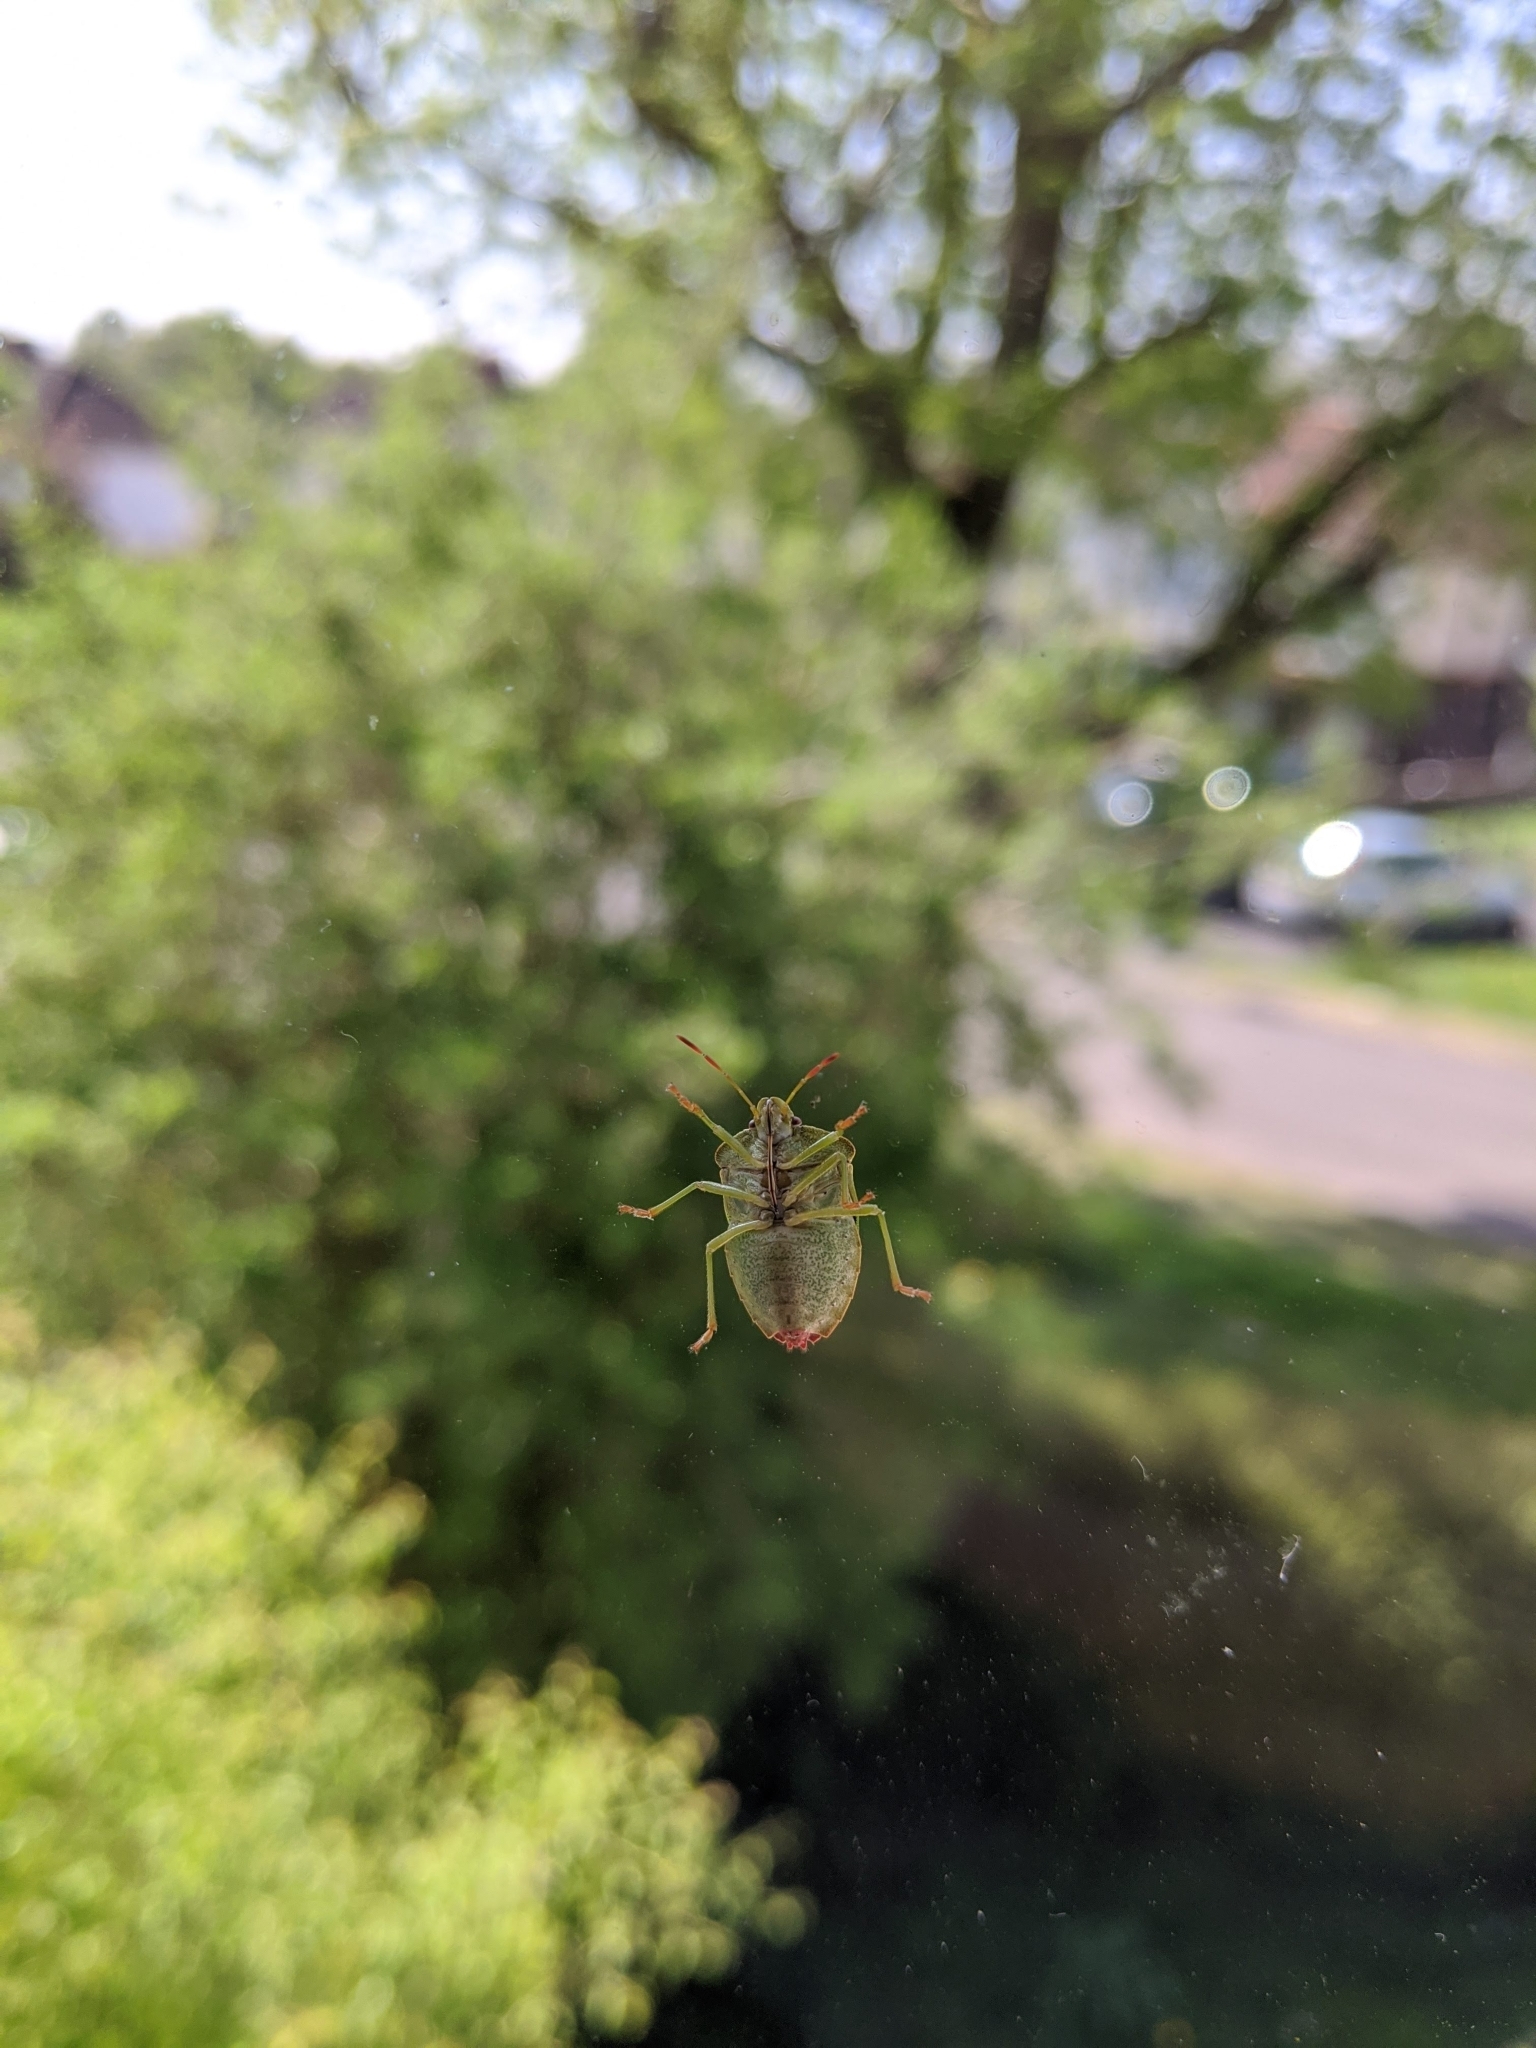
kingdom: Animalia
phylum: Arthropoda
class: Insecta
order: Hemiptera
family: Pentatomidae
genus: Palomena
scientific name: Palomena prasina
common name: Green shieldbug
